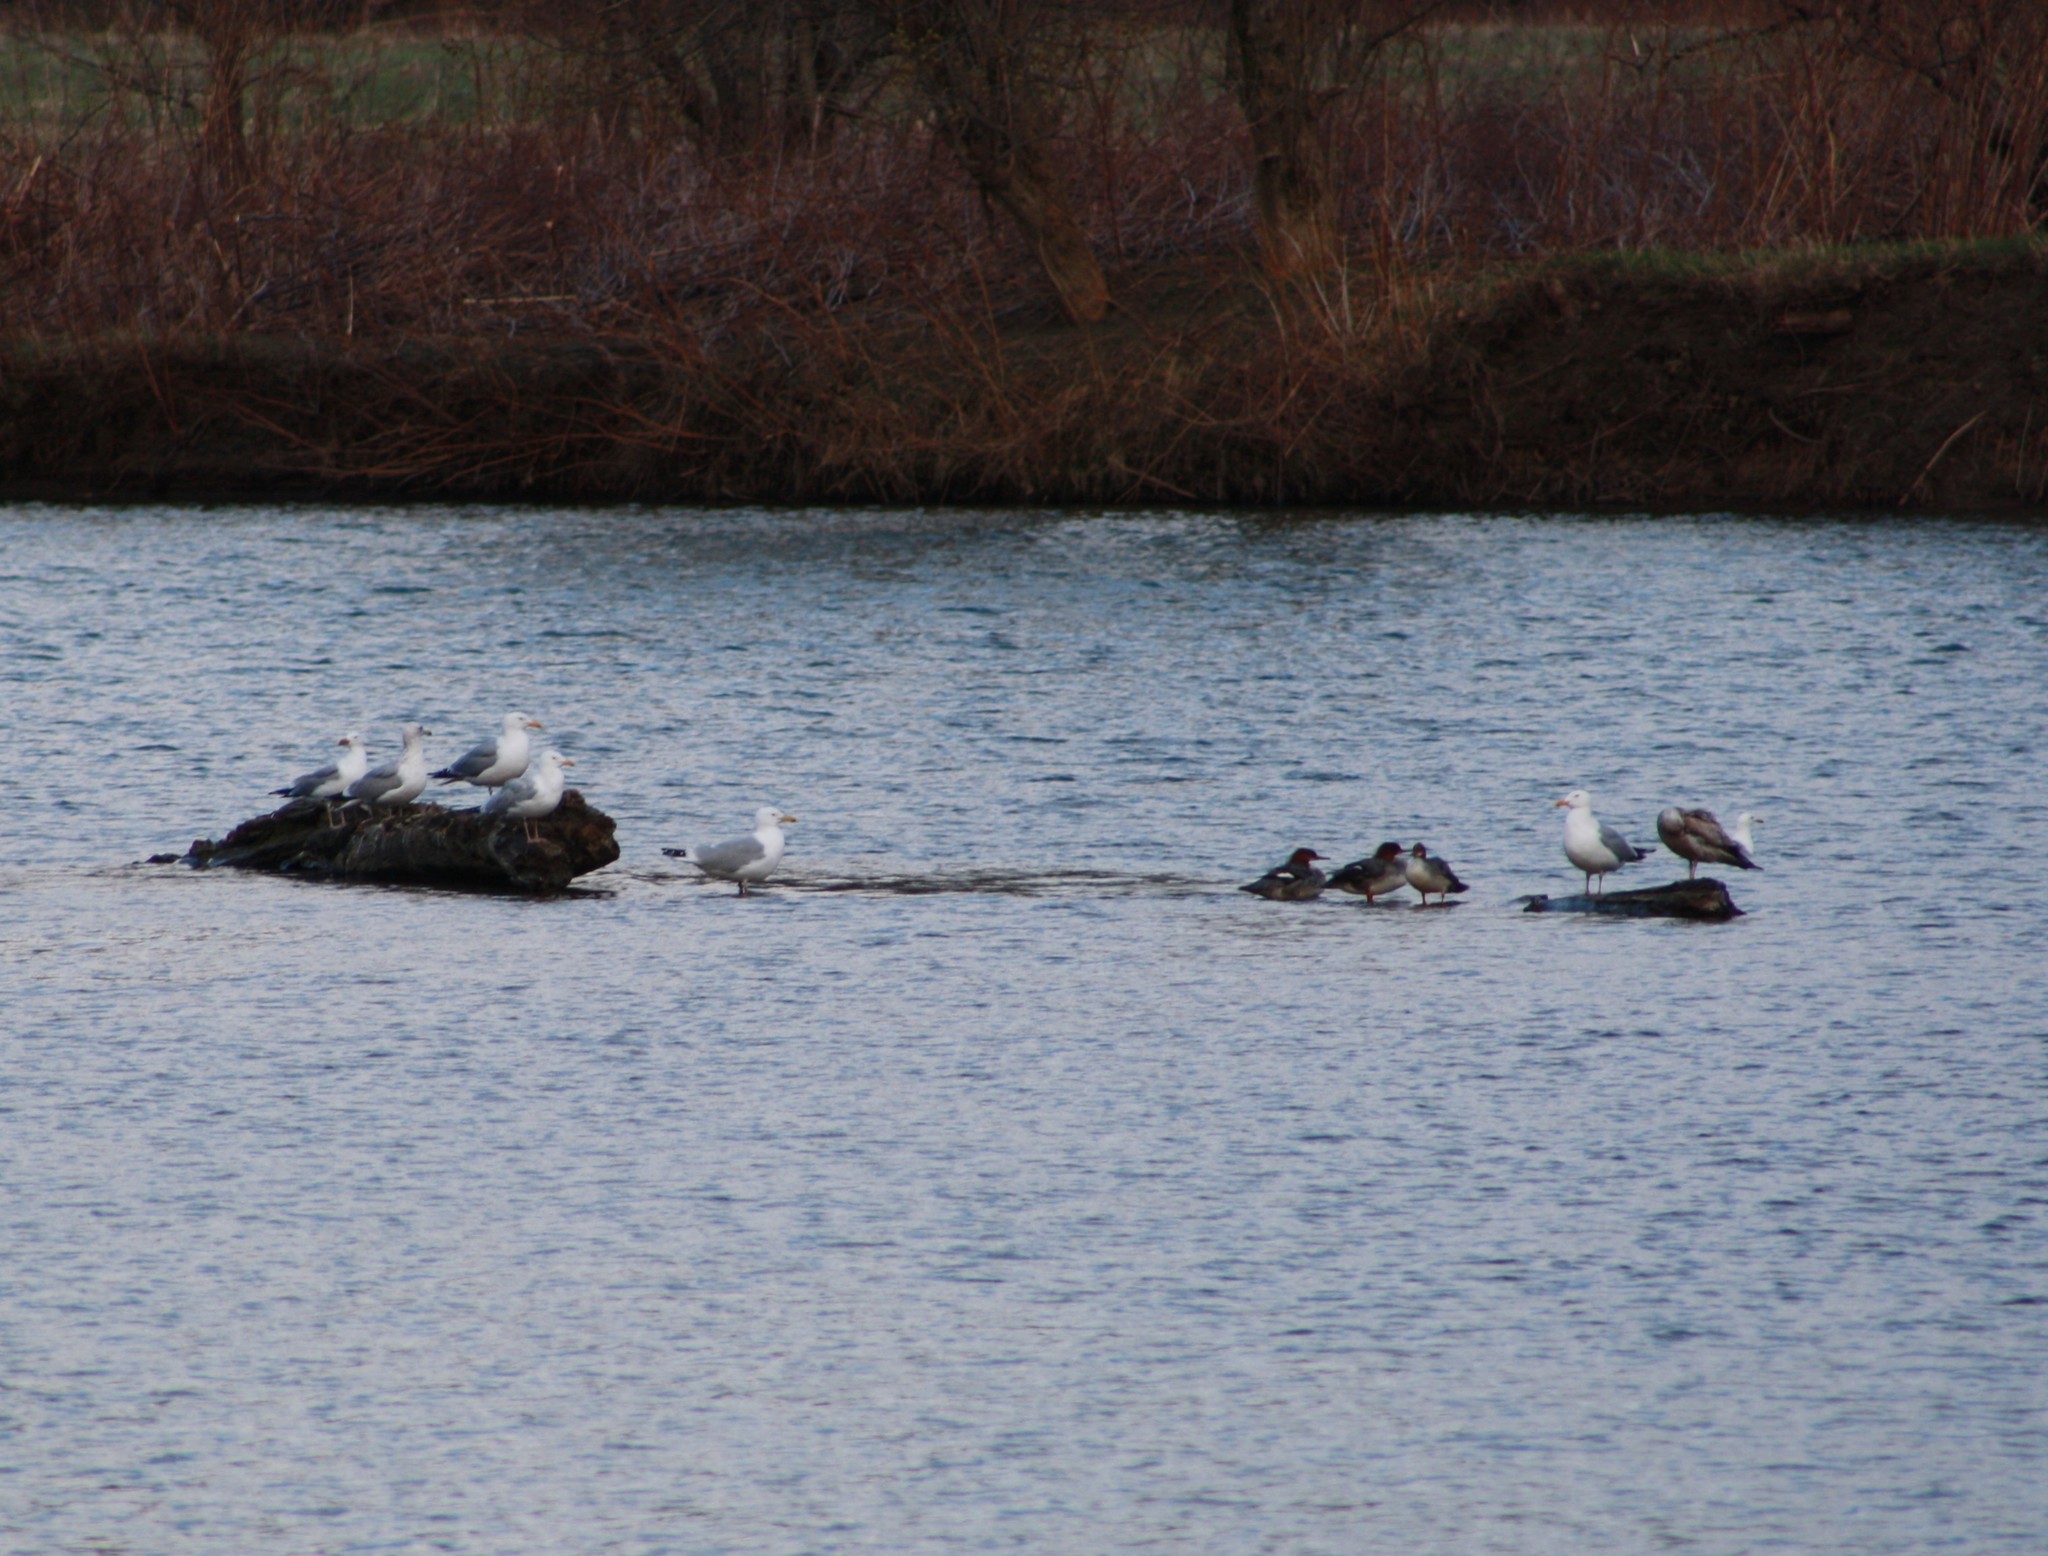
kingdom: Animalia
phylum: Chordata
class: Aves
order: Charadriiformes
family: Laridae
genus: Larus
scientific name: Larus argentatus
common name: Herring gull
